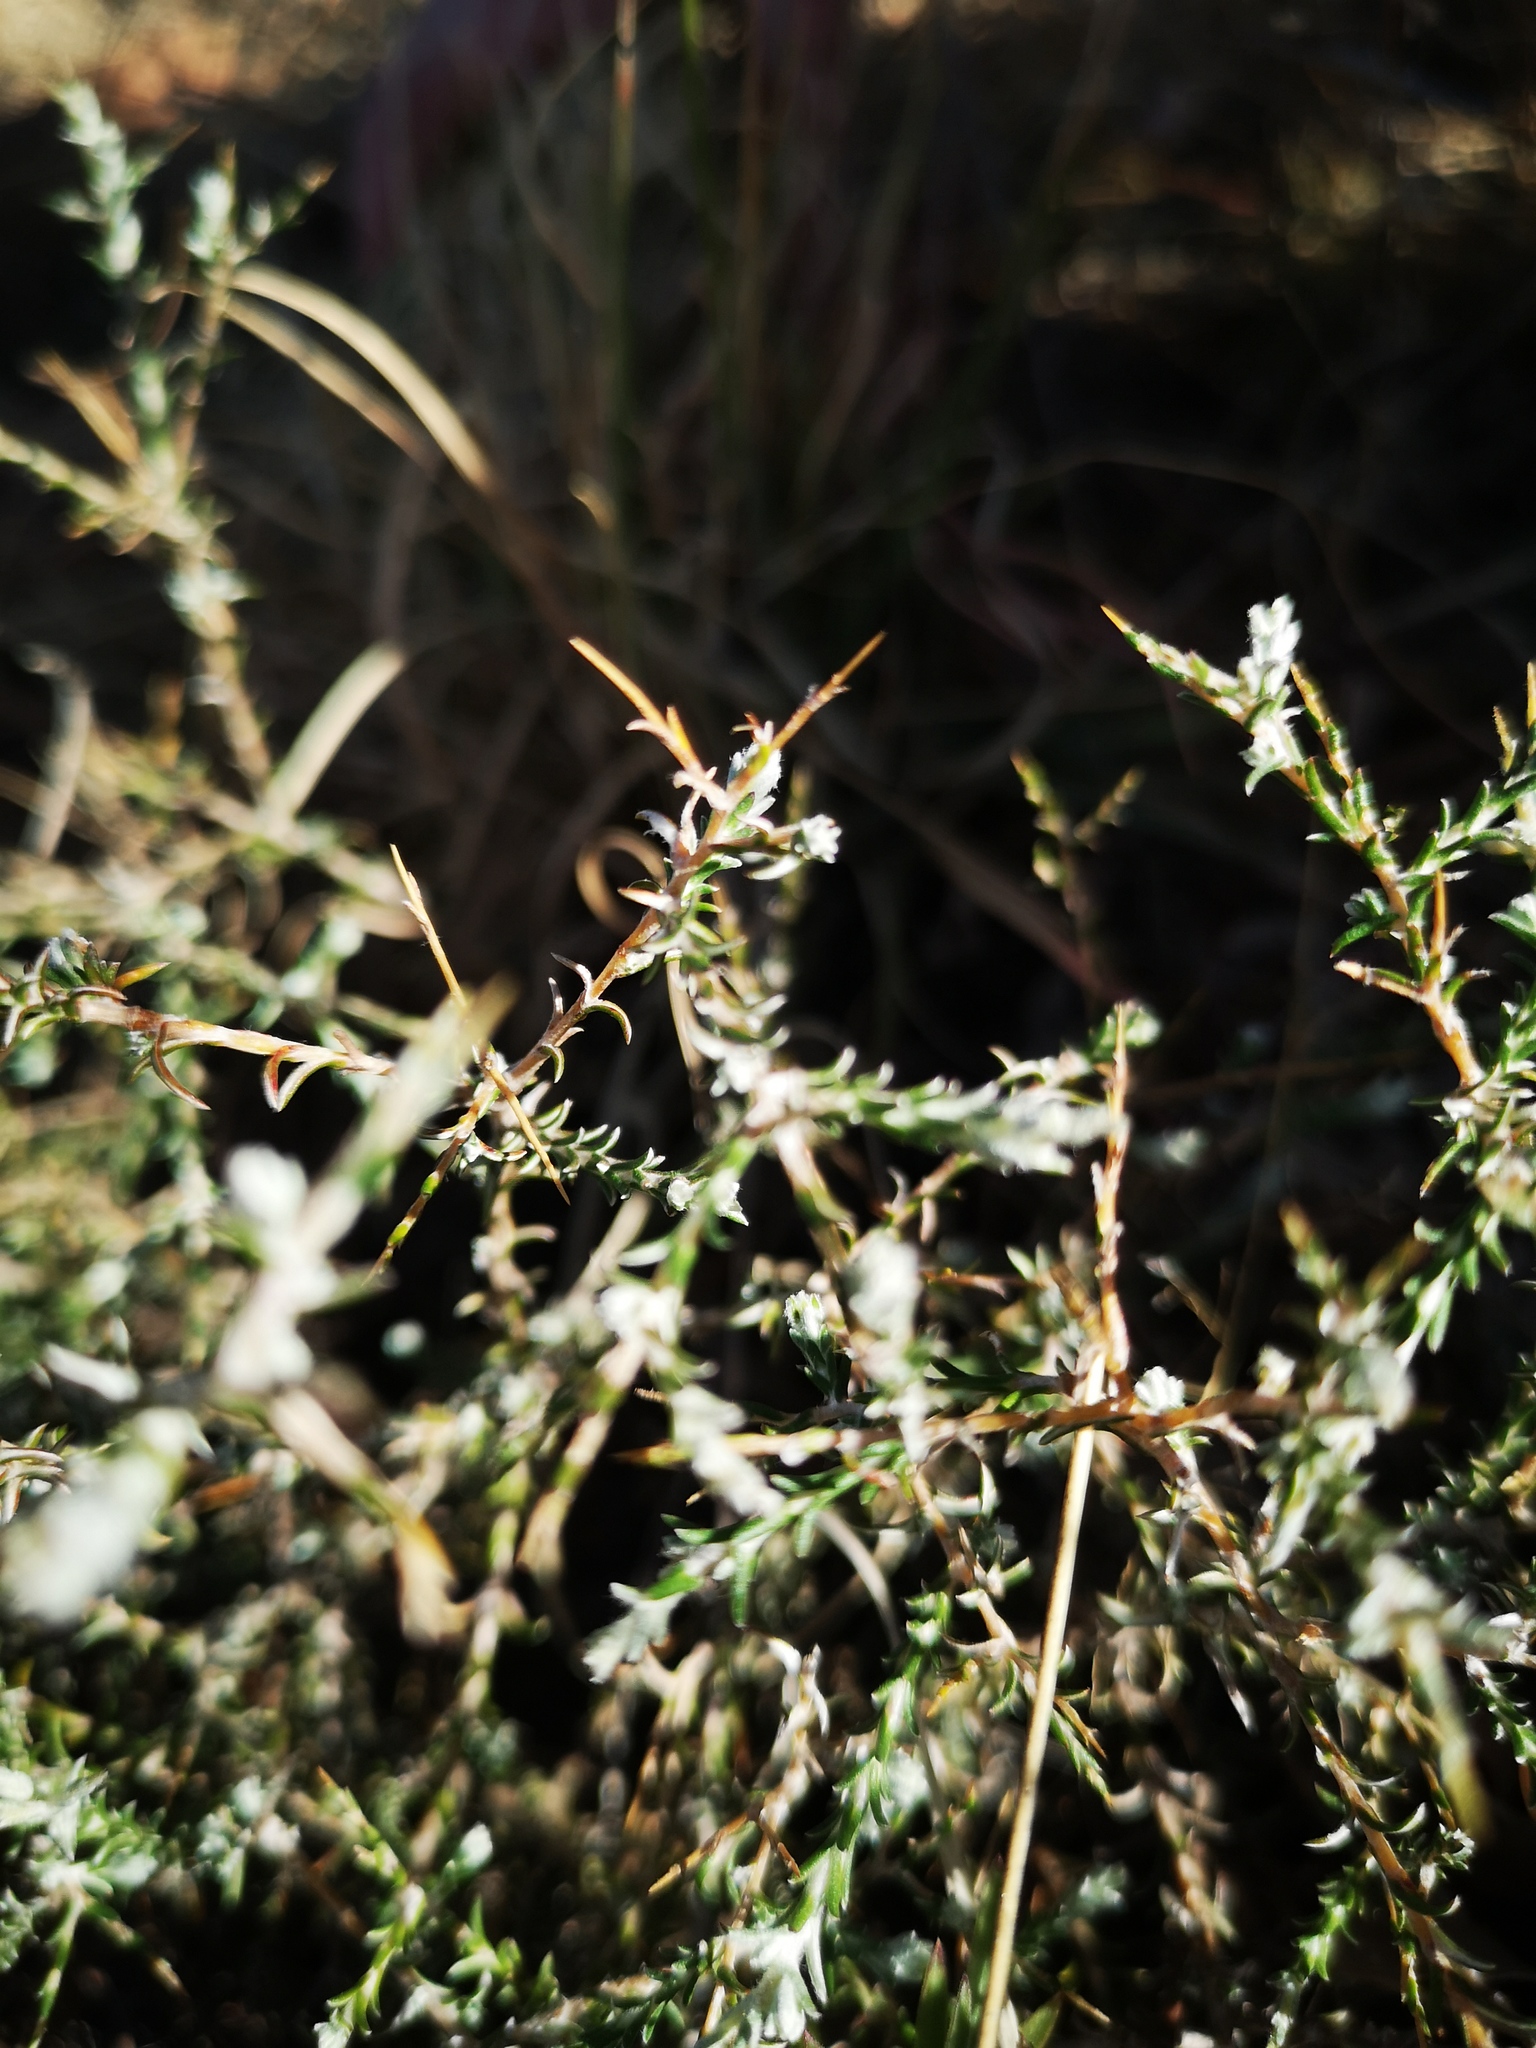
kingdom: Plantae
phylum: Tracheophyta
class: Magnoliopsida
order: Asterales
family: Asteraceae
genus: Pterothrix
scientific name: Pterothrix spinescens
